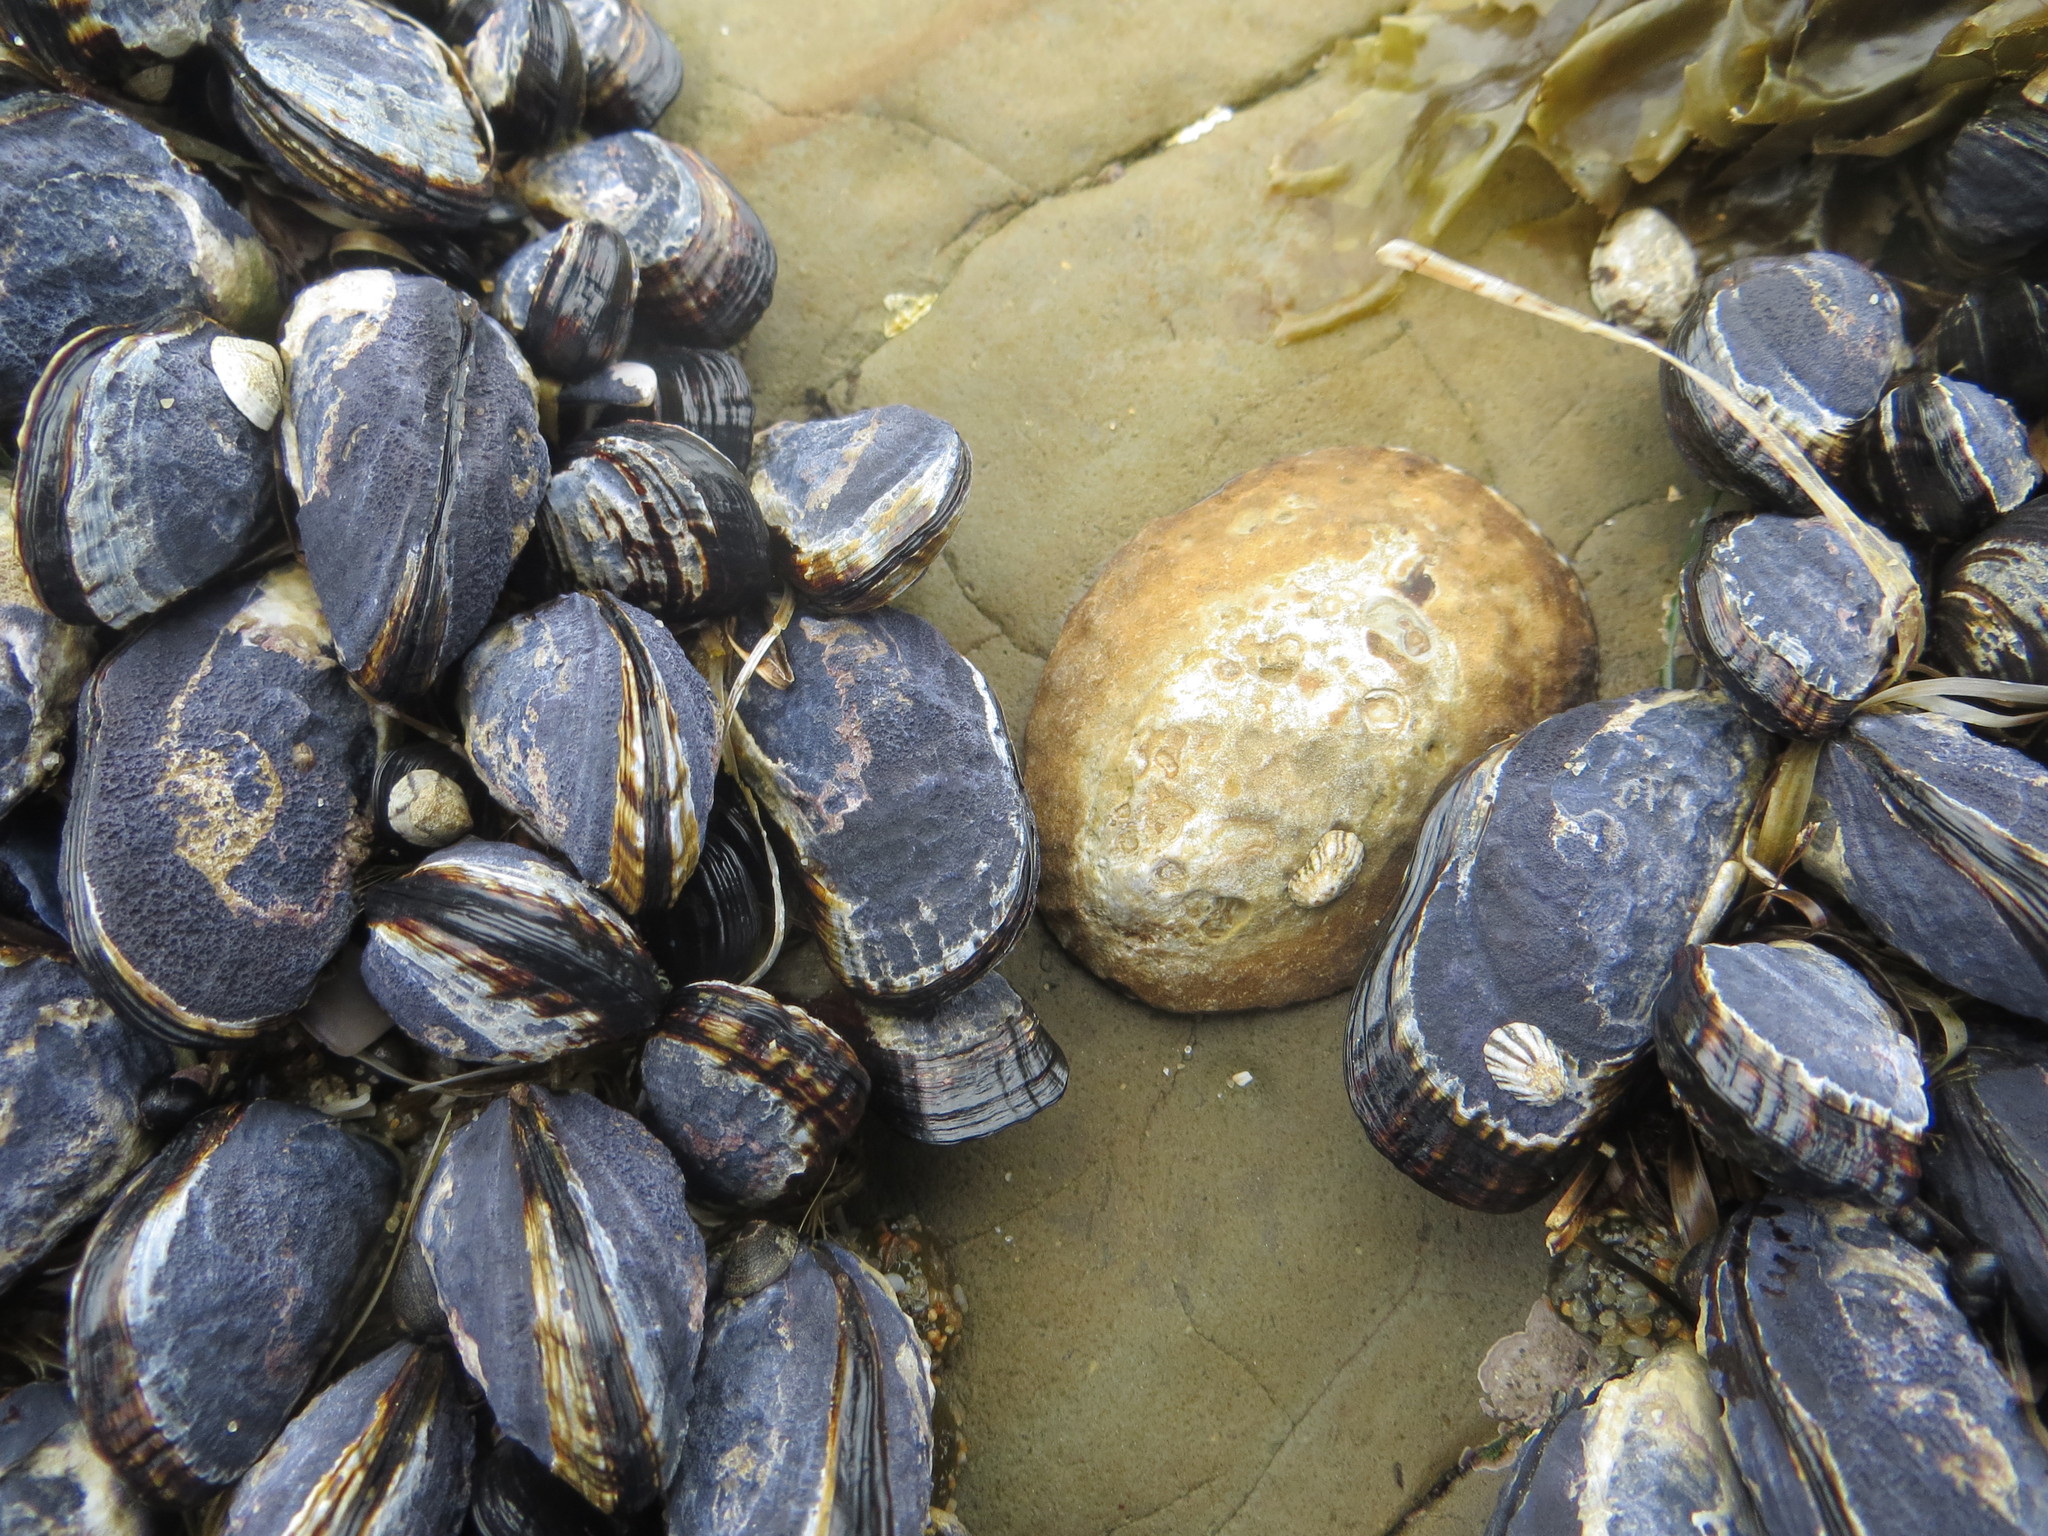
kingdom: Animalia
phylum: Mollusca
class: Gastropoda
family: Lottiidae
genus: Lottia
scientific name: Lottia gigantea
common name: Owl limpet
